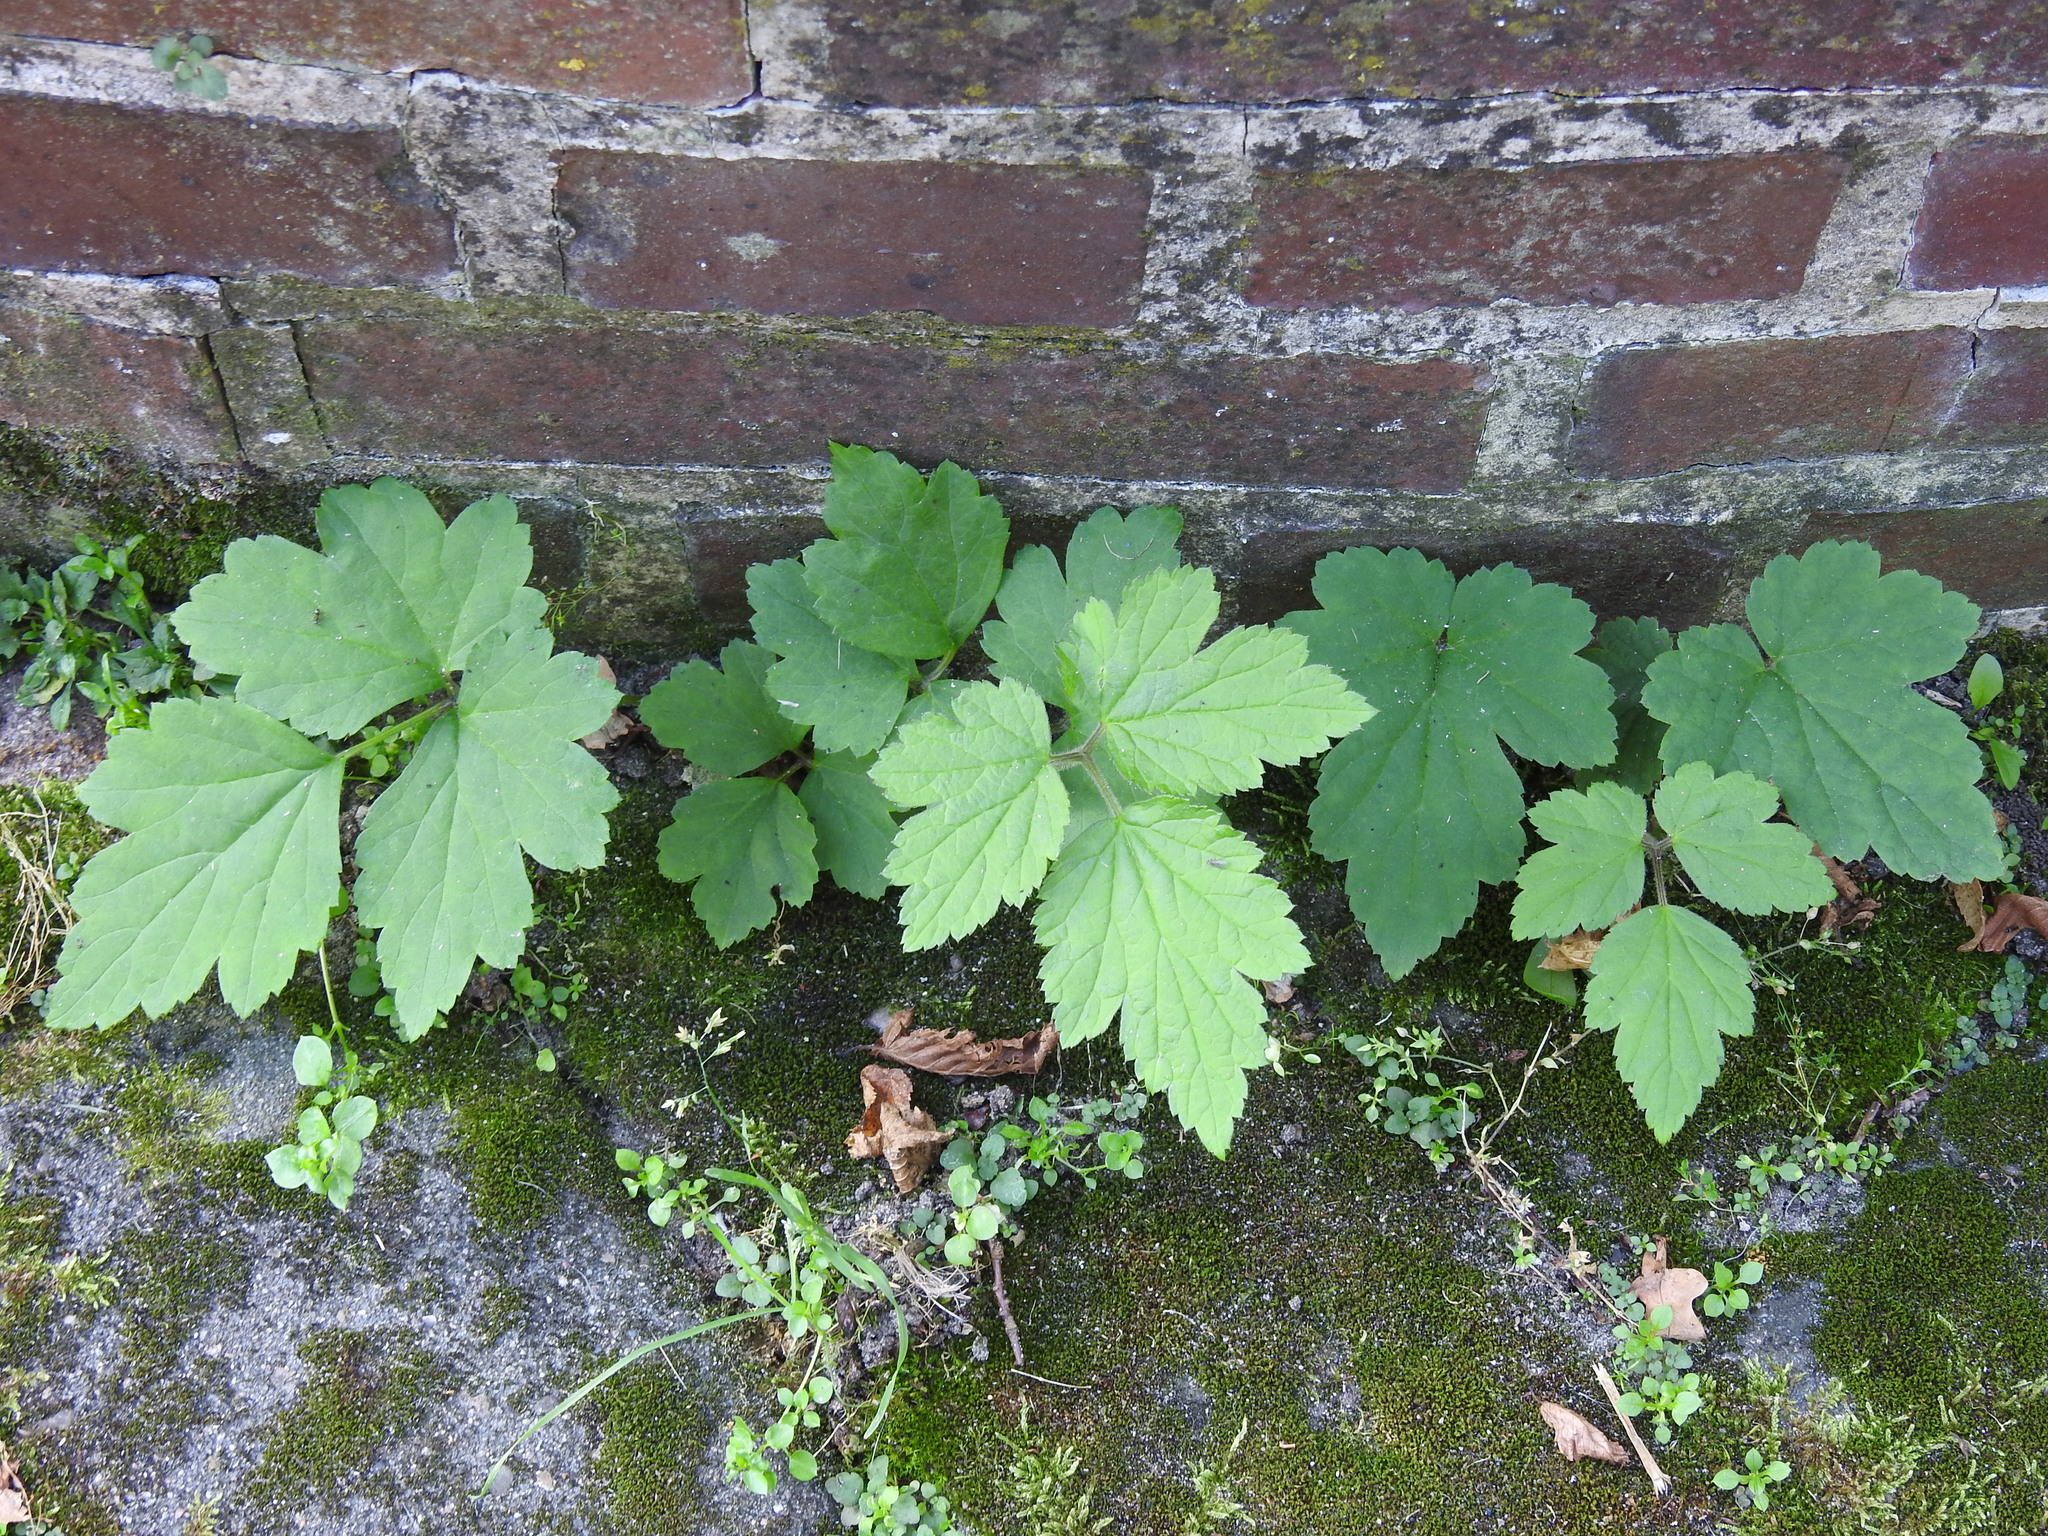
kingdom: Plantae
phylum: Tracheophyta
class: Magnoliopsida
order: Ranunculales
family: Ranunculaceae
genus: Eriocapitella
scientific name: Eriocapitella hupehensis
